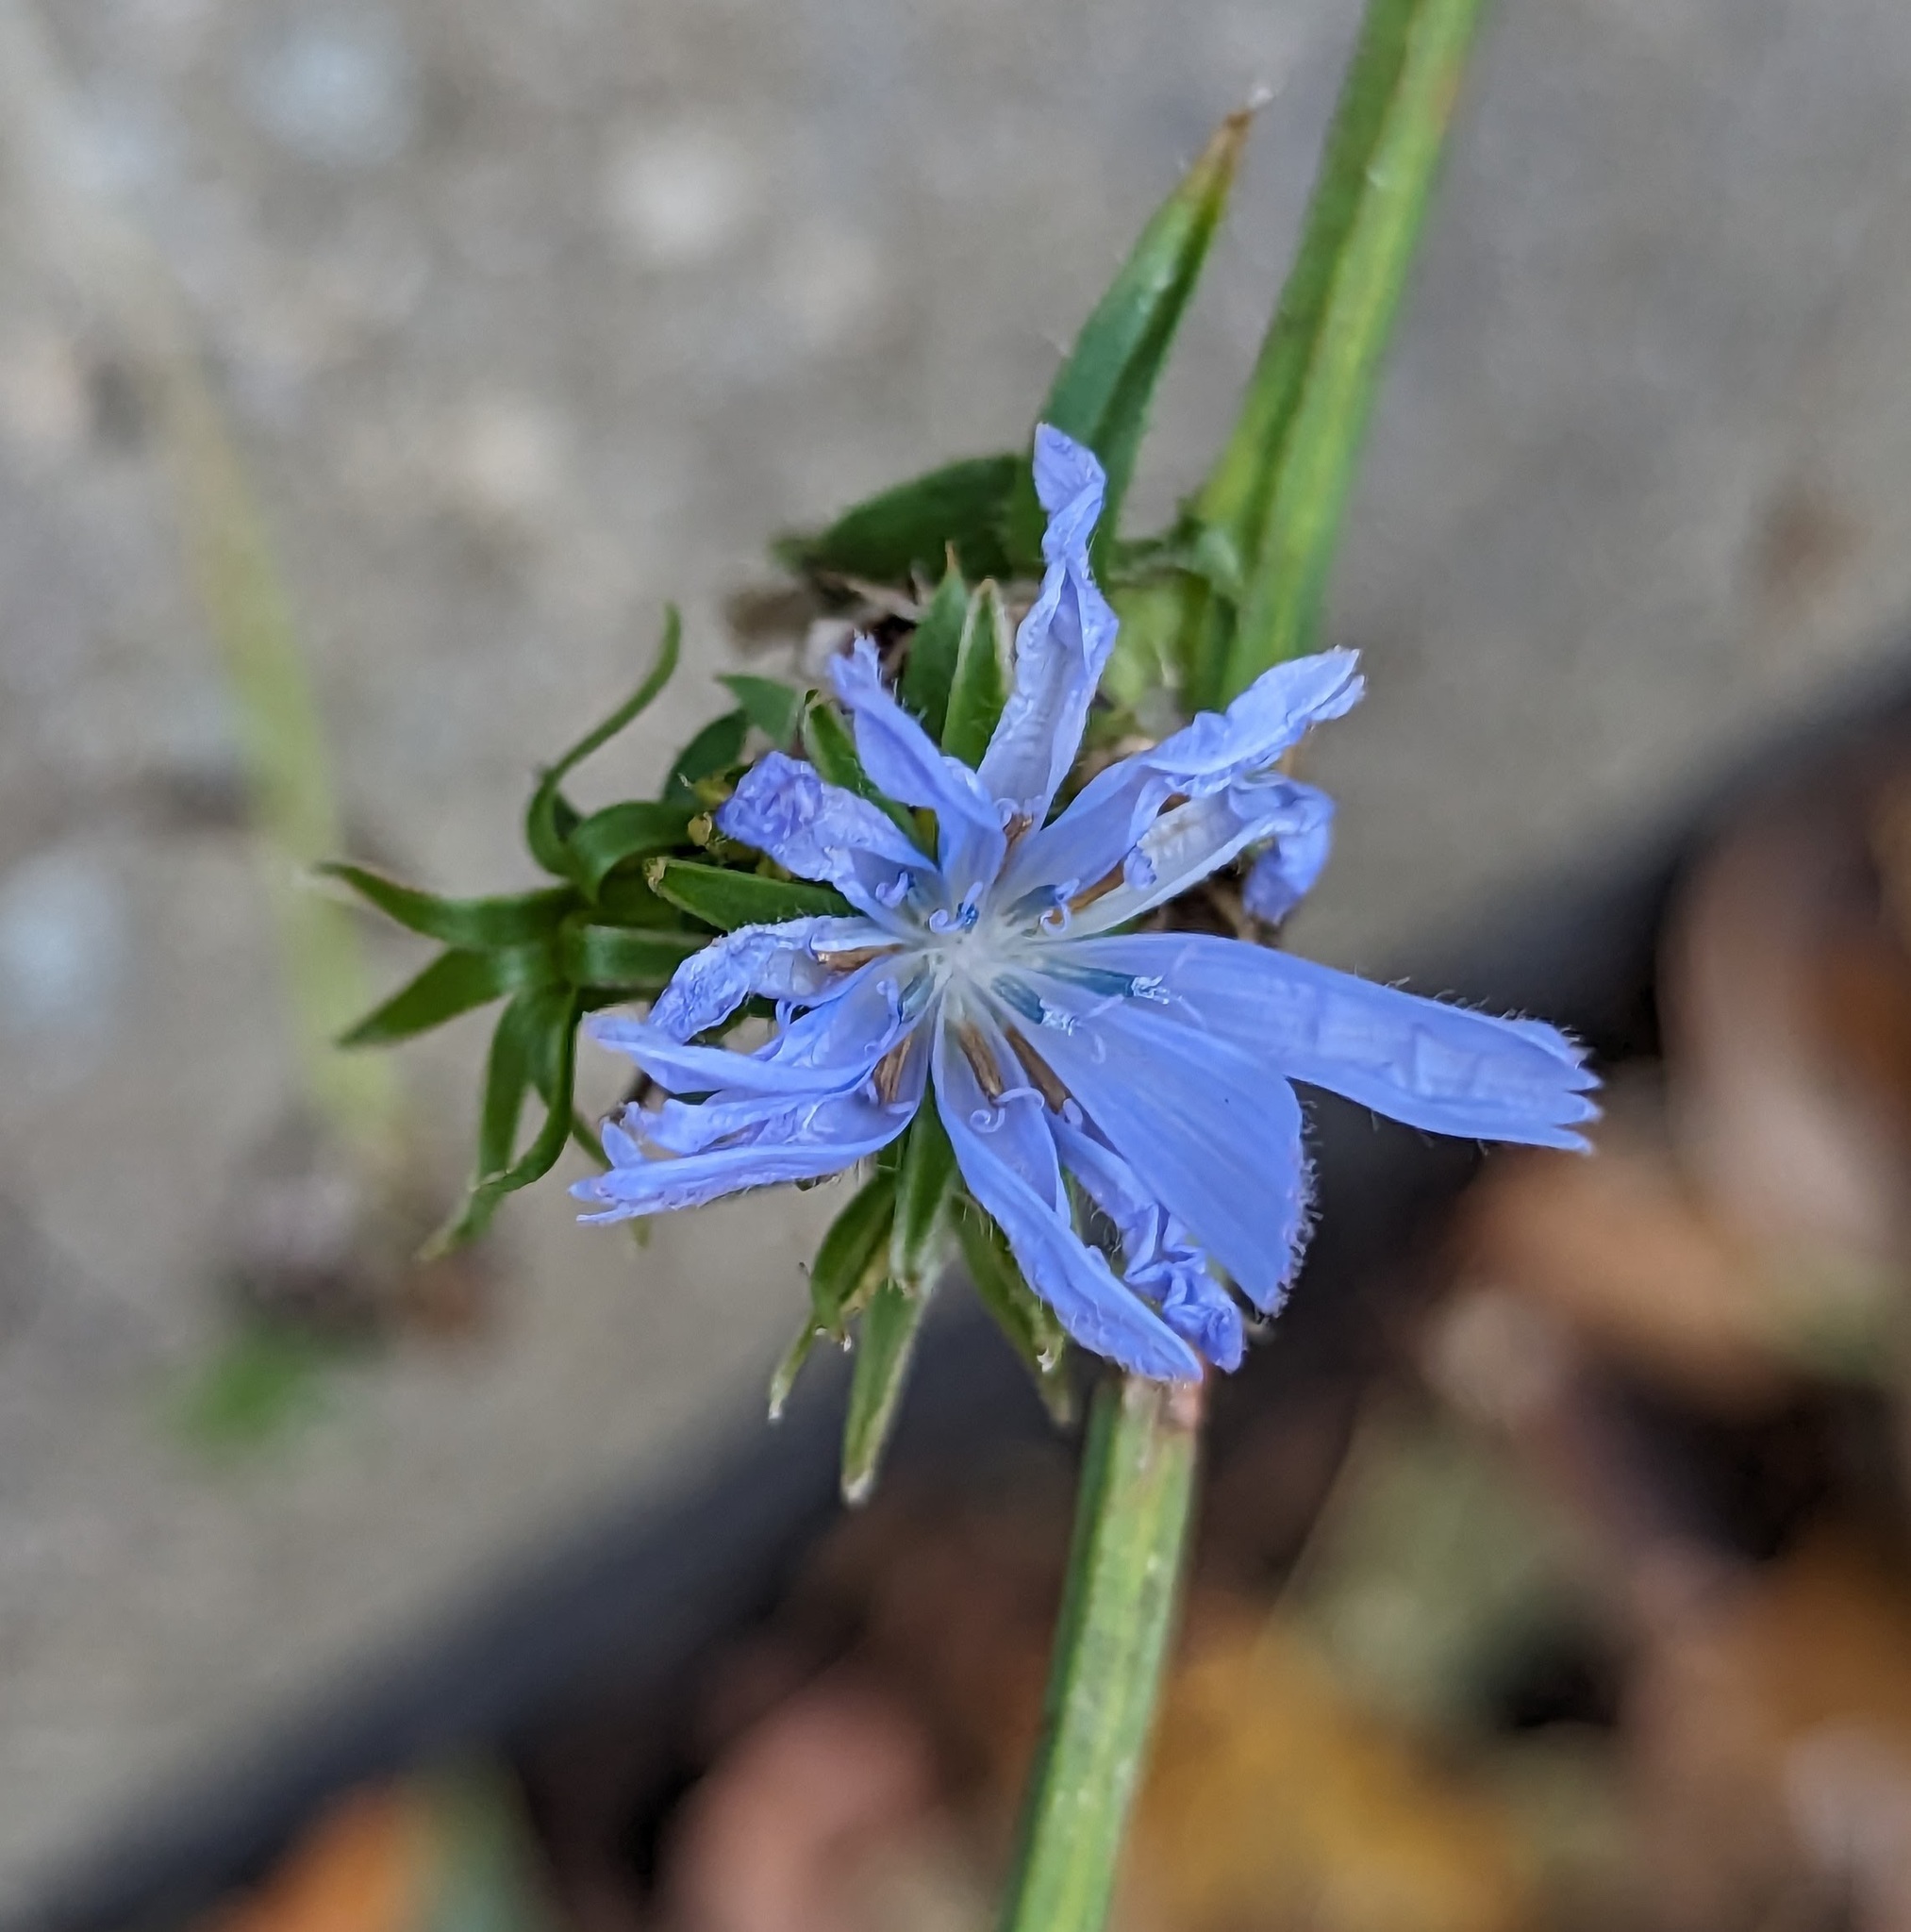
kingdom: Plantae
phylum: Tracheophyta
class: Magnoliopsida
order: Asterales
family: Asteraceae
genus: Cichorium
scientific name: Cichorium intybus
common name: Chicory
